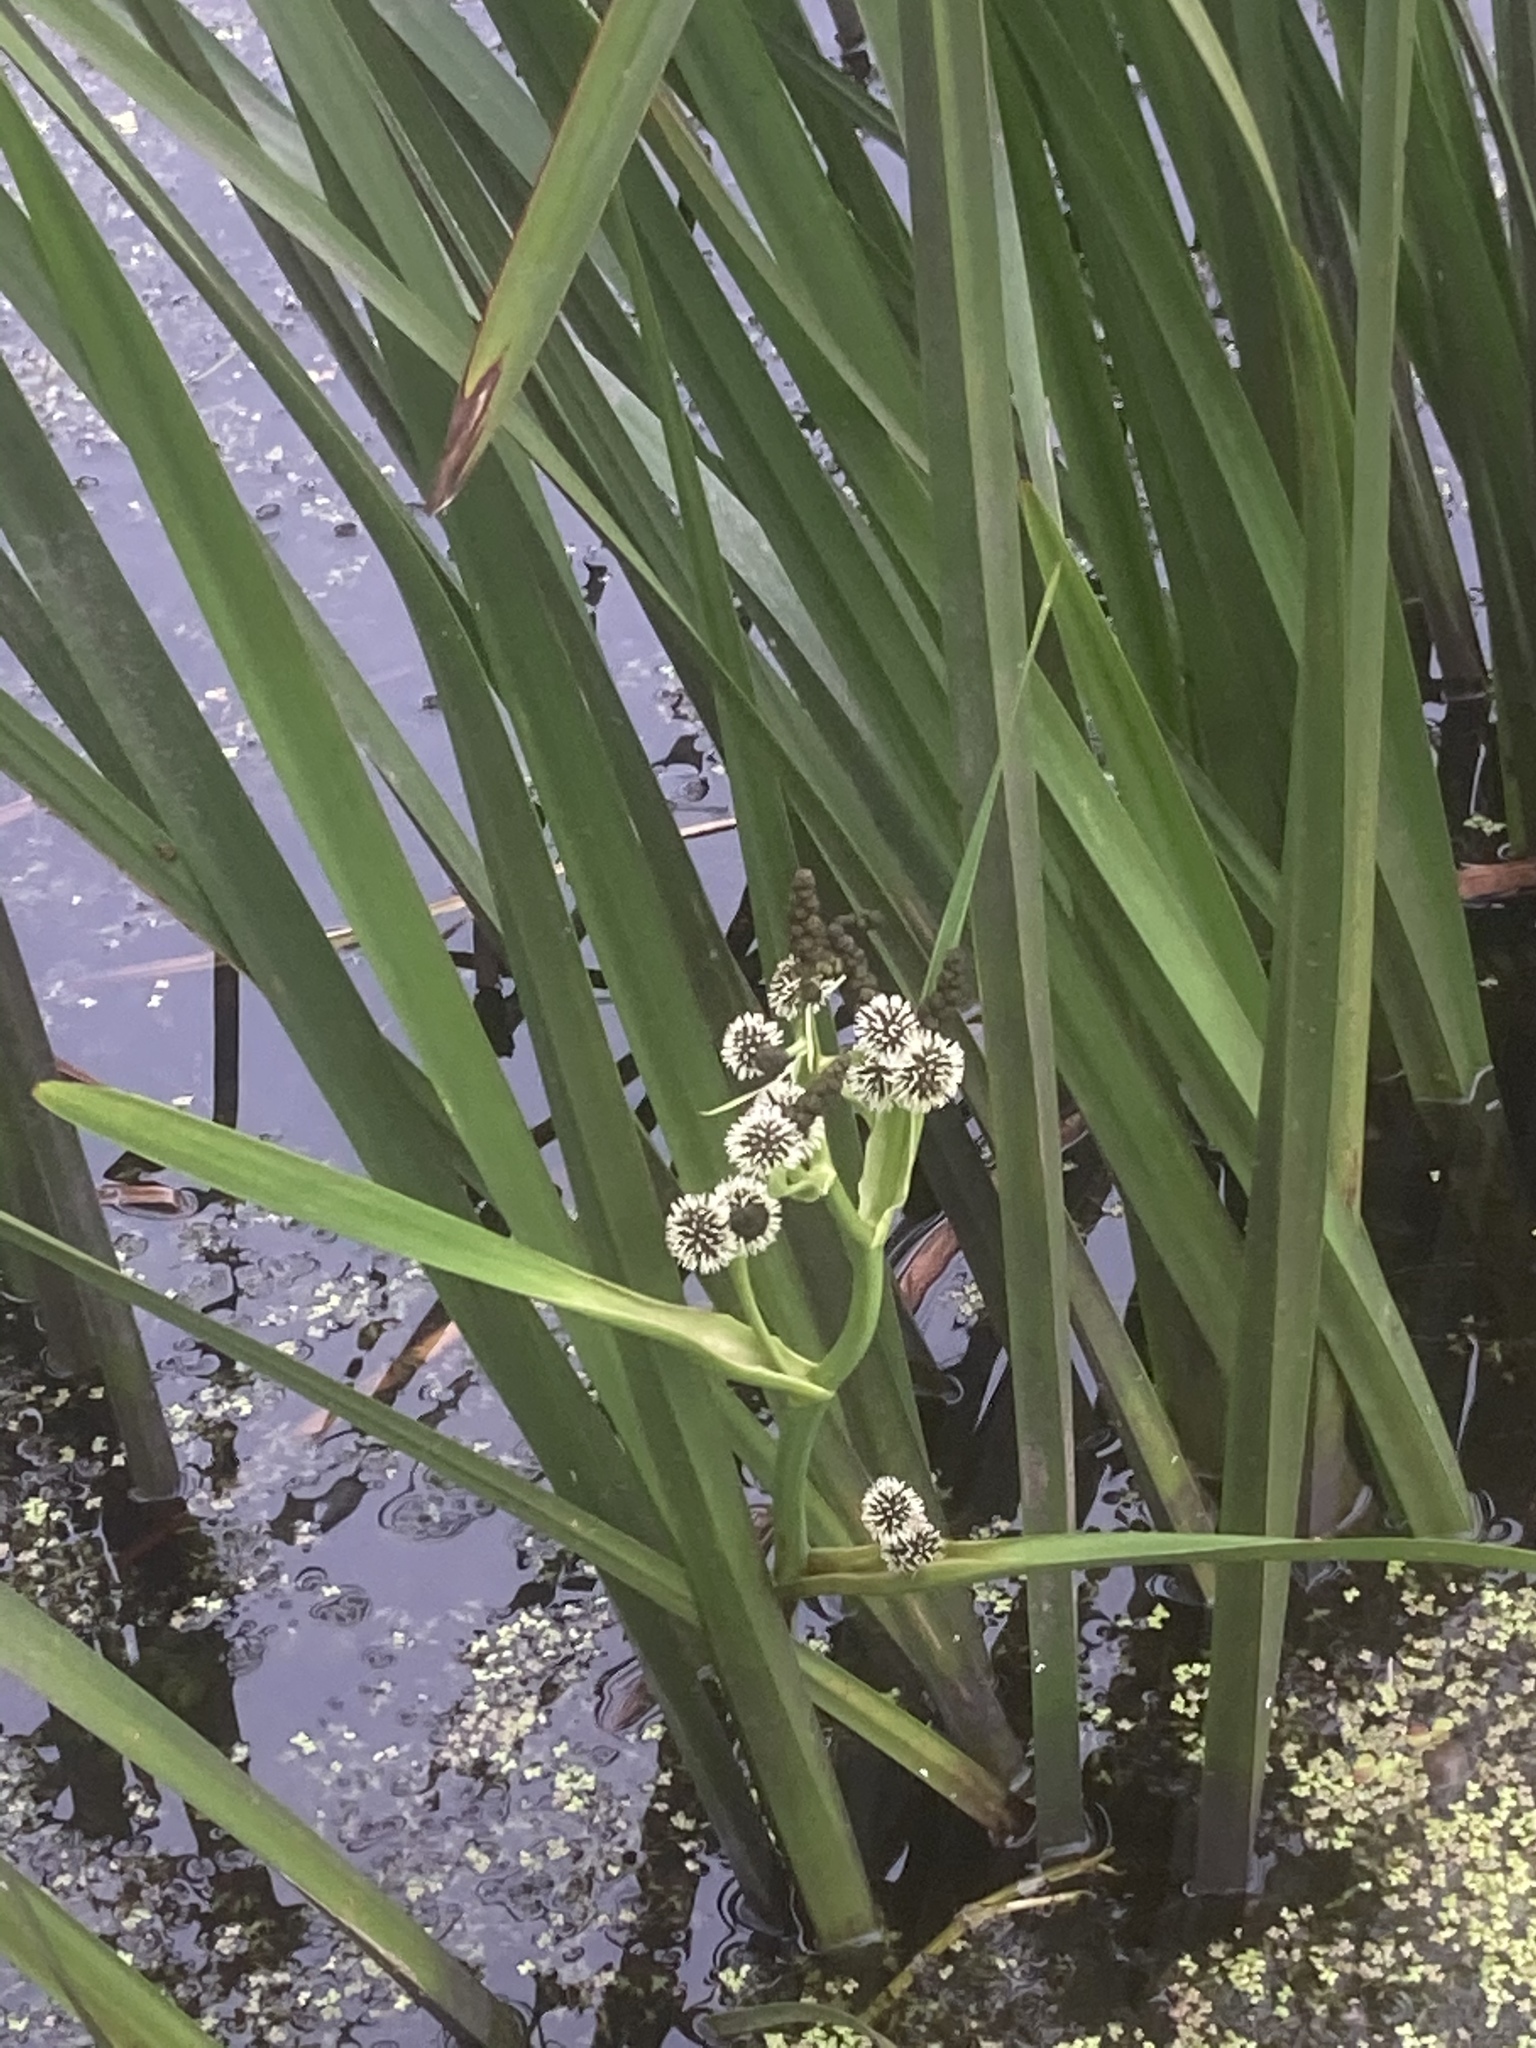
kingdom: Plantae
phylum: Tracheophyta
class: Liliopsida
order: Poales
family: Typhaceae
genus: Sparganium
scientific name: Sparganium erectum
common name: Branched bur-reed
